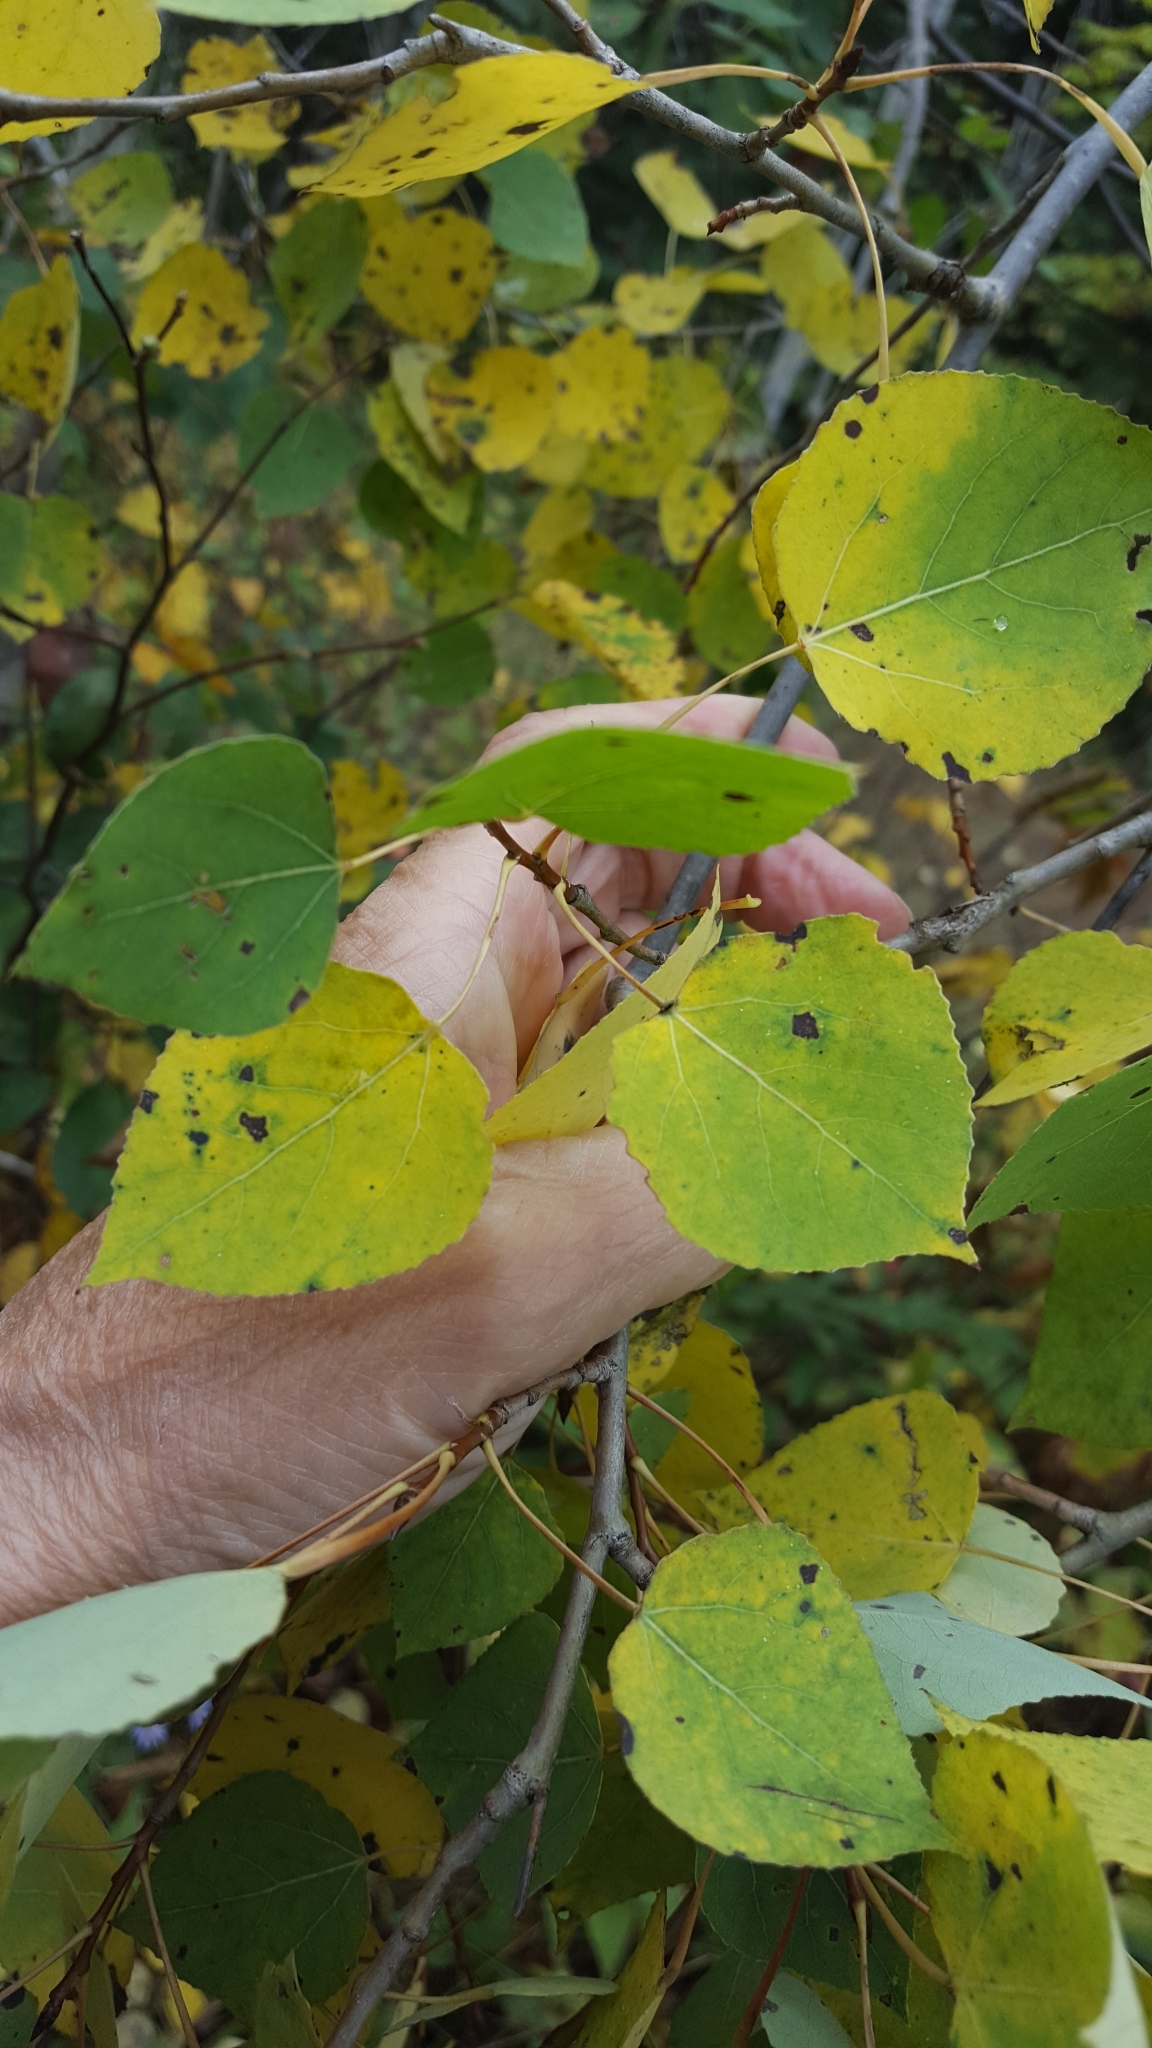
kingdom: Plantae
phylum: Tracheophyta
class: Magnoliopsida
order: Malpighiales
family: Salicaceae
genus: Populus
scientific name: Populus tremuloides
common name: Quaking aspen
